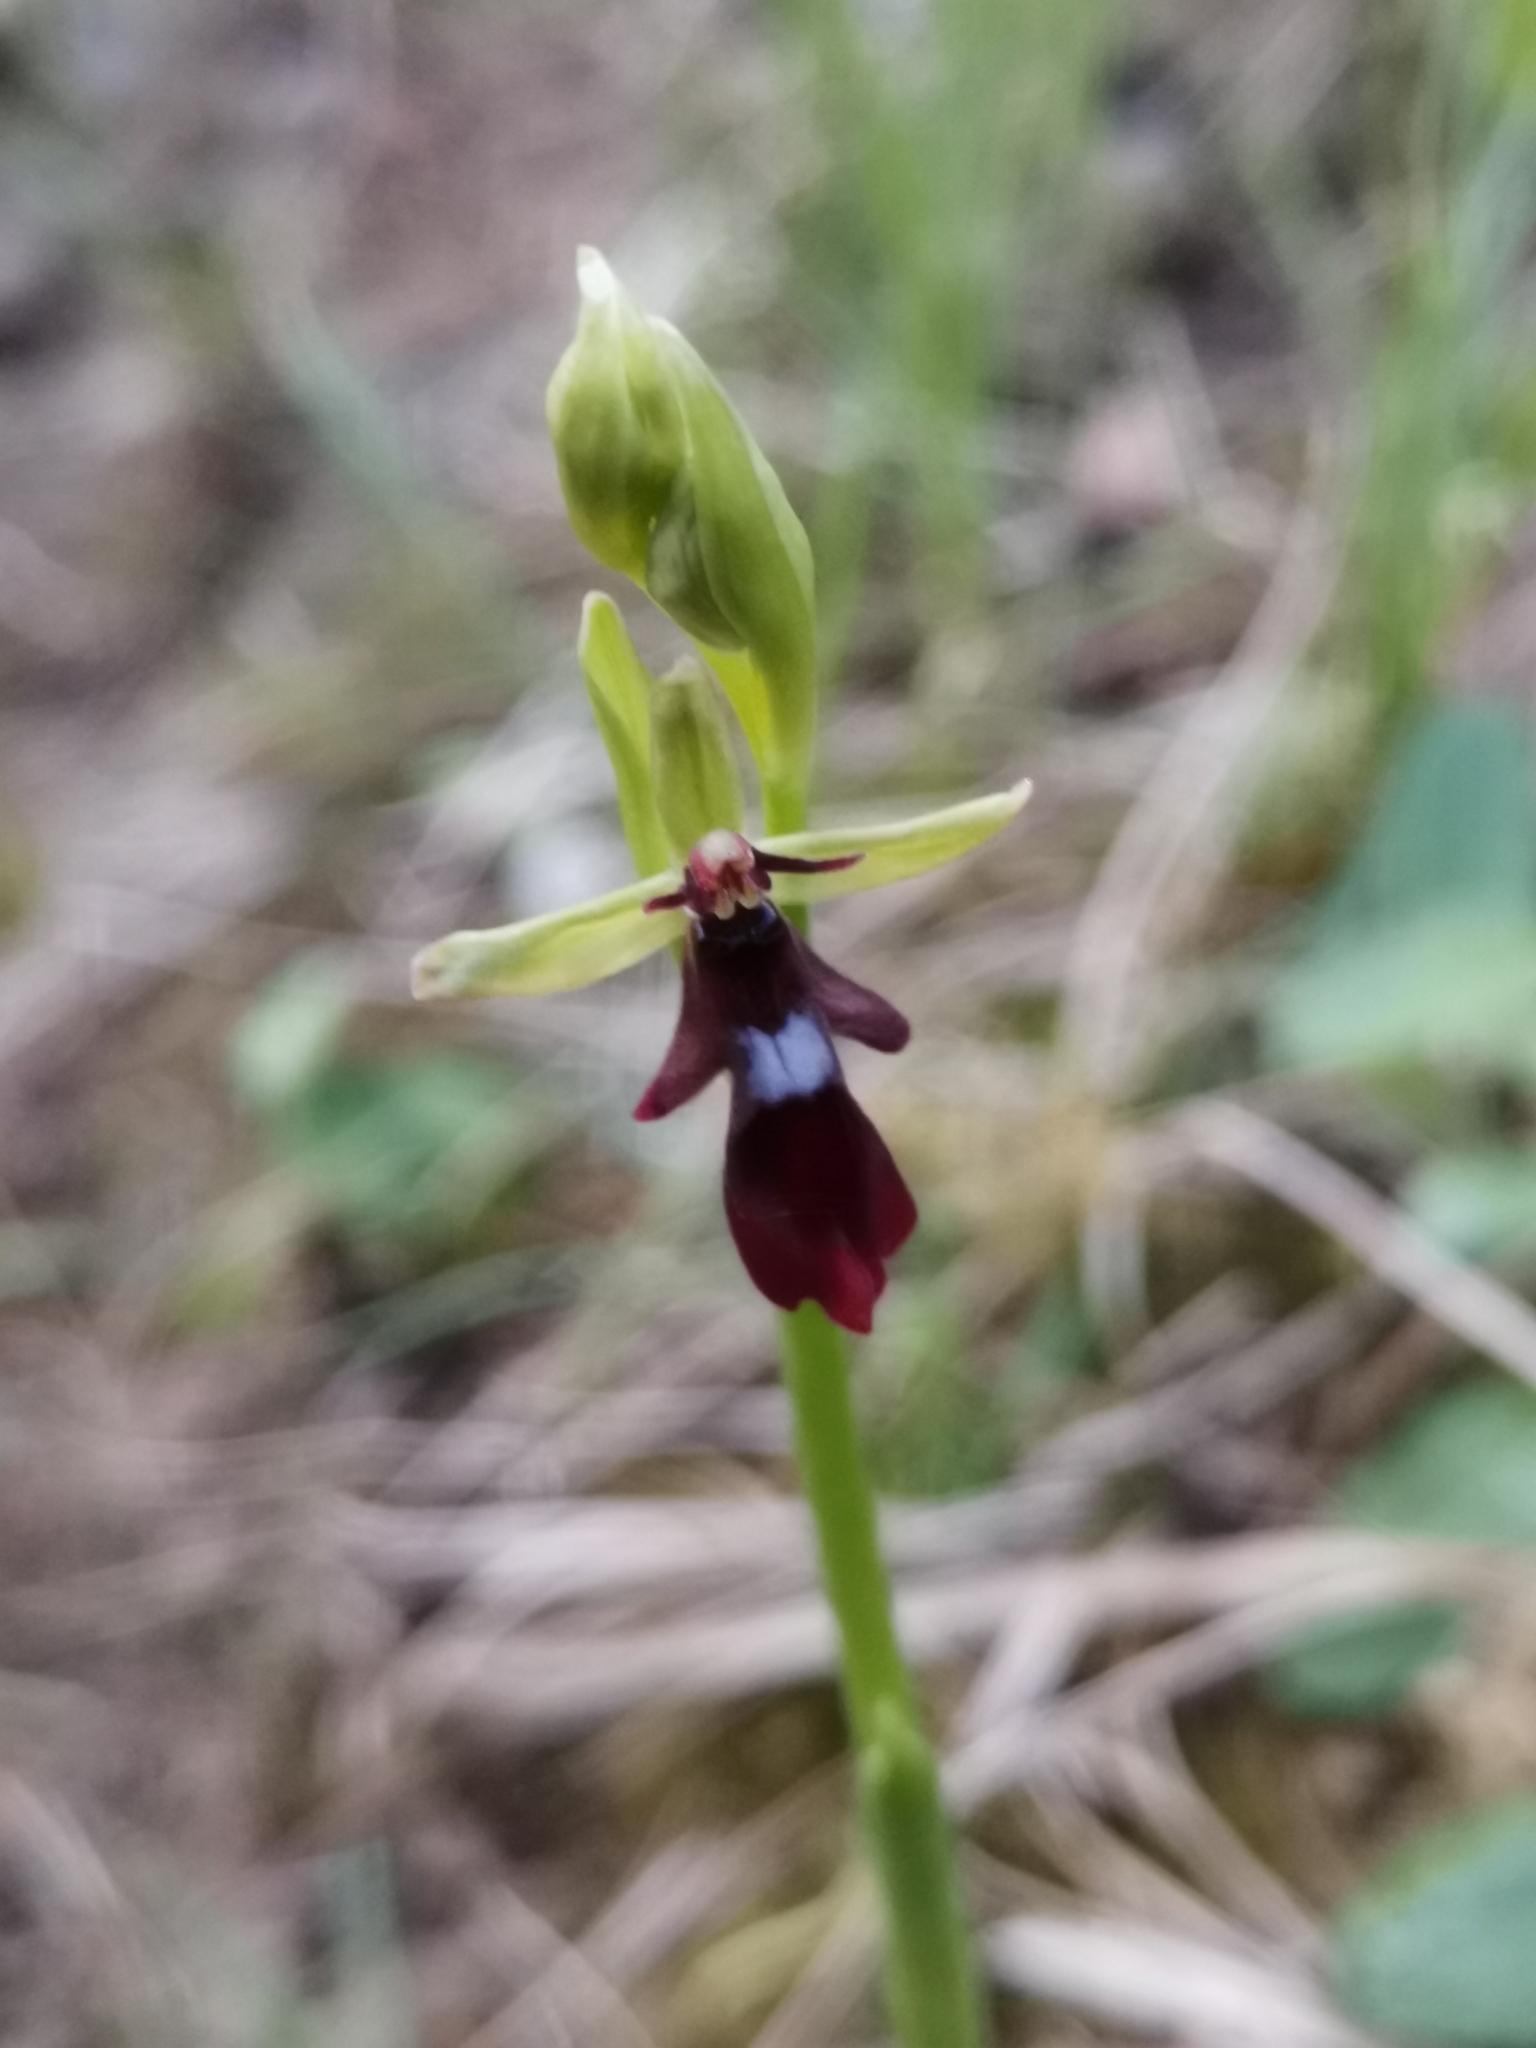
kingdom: Plantae
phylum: Tracheophyta
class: Liliopsida
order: Asparagales
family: Orchidaceae
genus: Ophrys
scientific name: Ophrys insectifera
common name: Fly orchid
